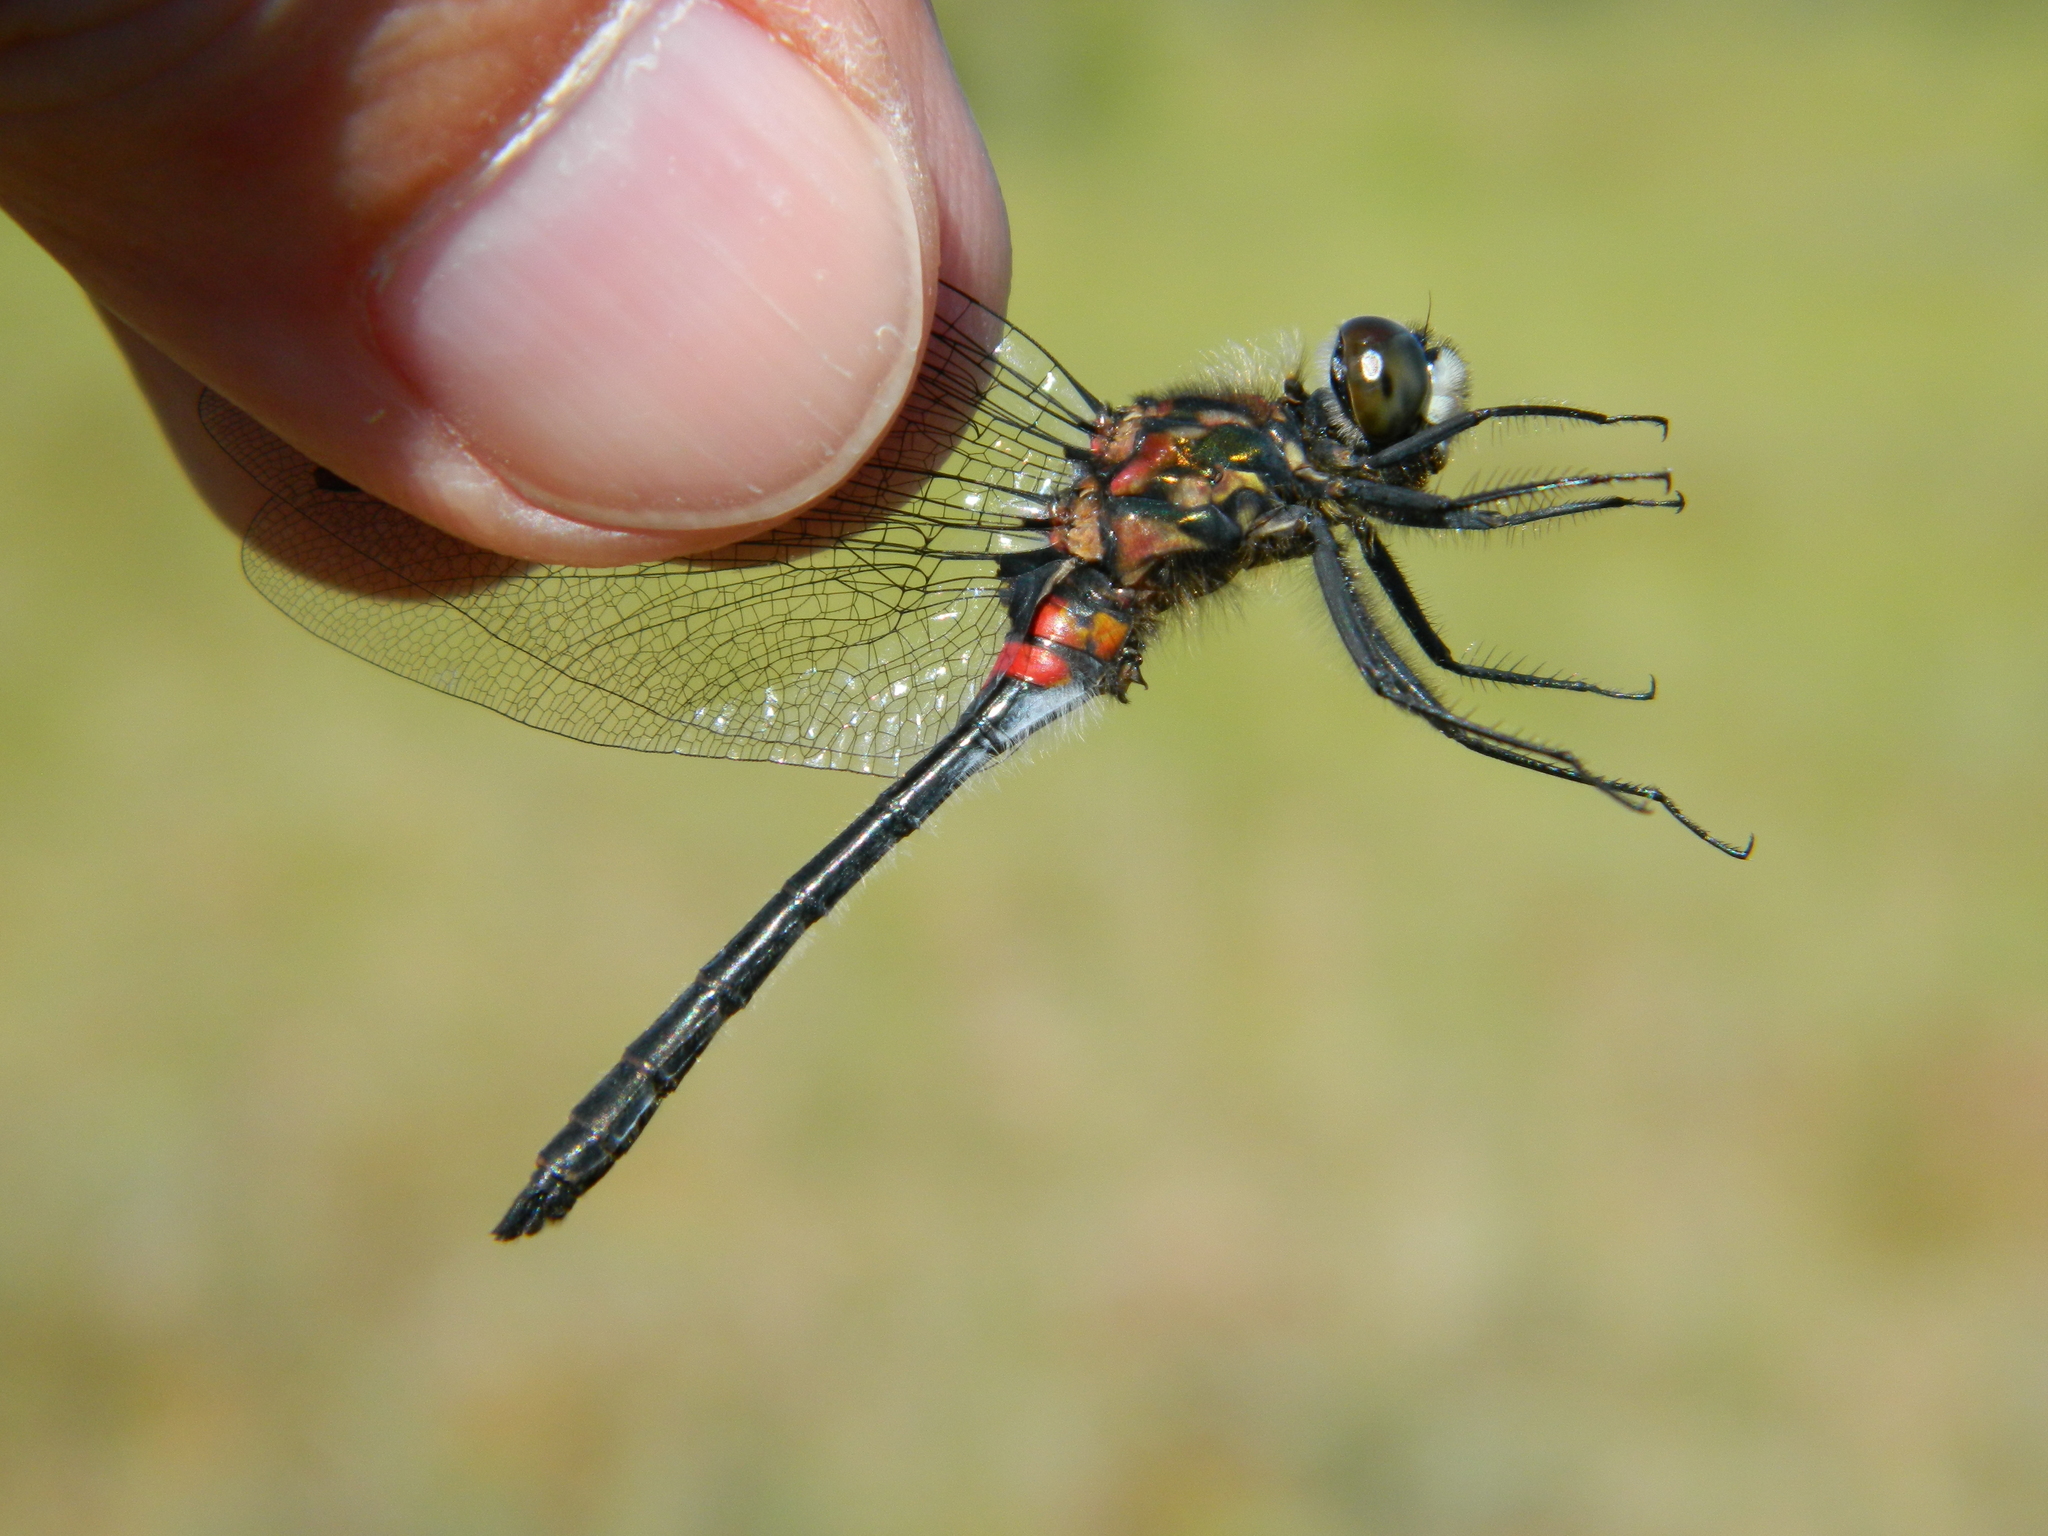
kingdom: Animalia
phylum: Arthropoda
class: Insecta
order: Odonata
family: Libellulidae
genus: Leucorrhinia
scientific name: Leucorrhinia glacialis
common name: Crimson-ringed whiteface
